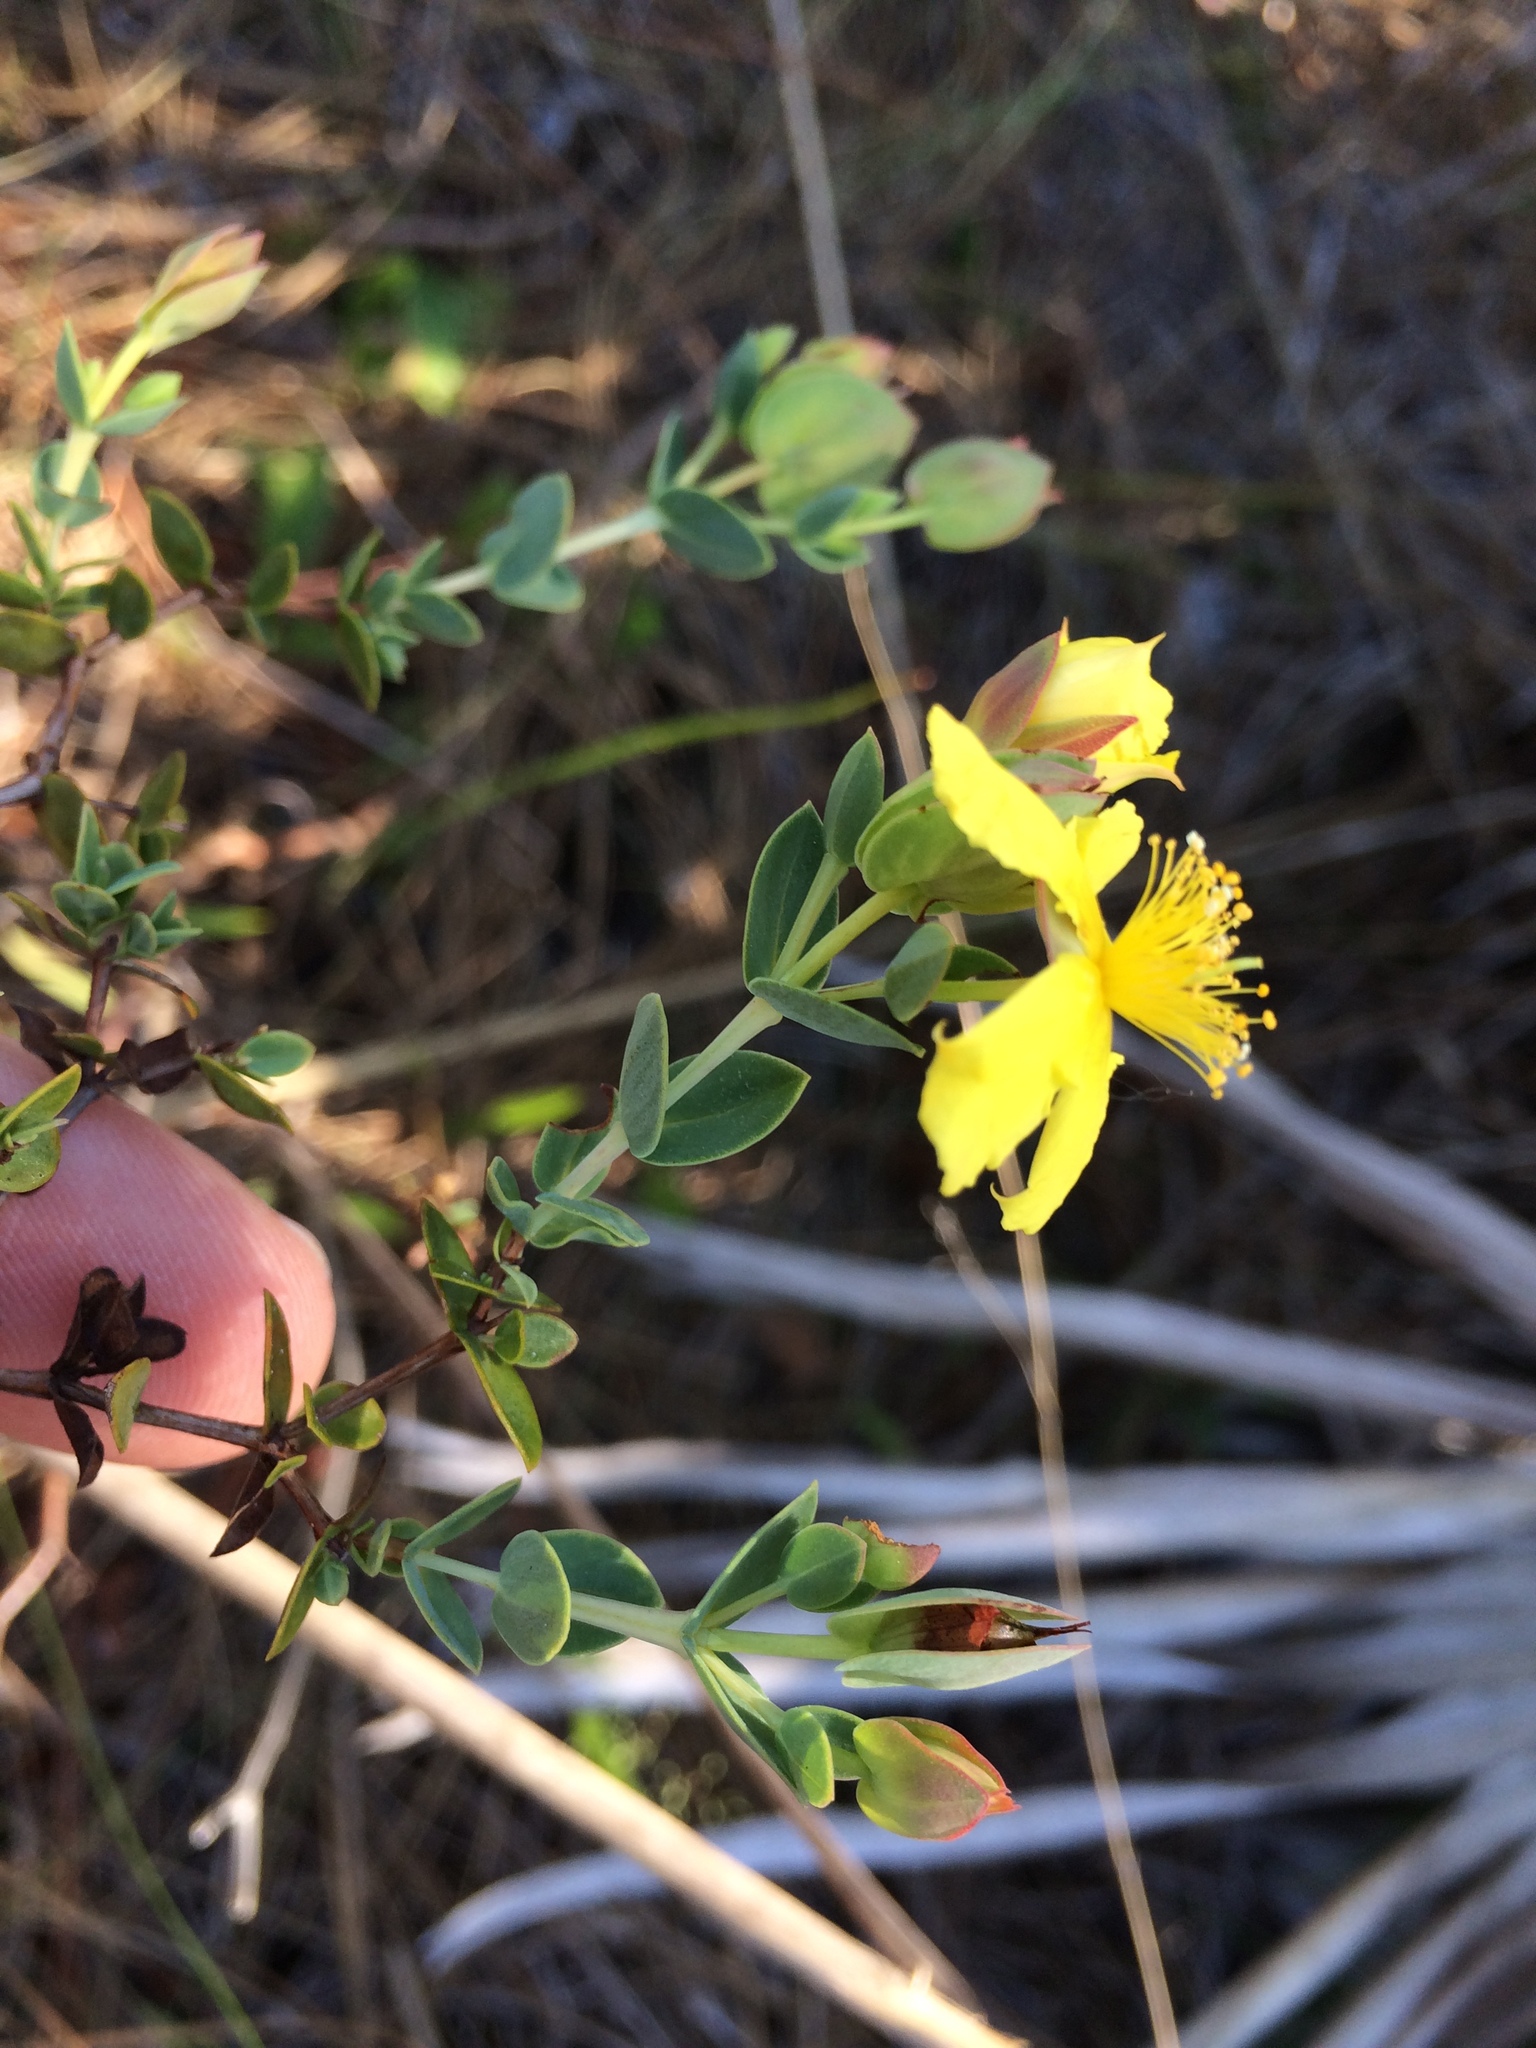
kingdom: Plantae
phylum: Tracheophyta
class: Magnoliopsida
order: Malpighiales
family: Hypericaceae
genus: Hypericum
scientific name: Hypericum tetrapetalum
